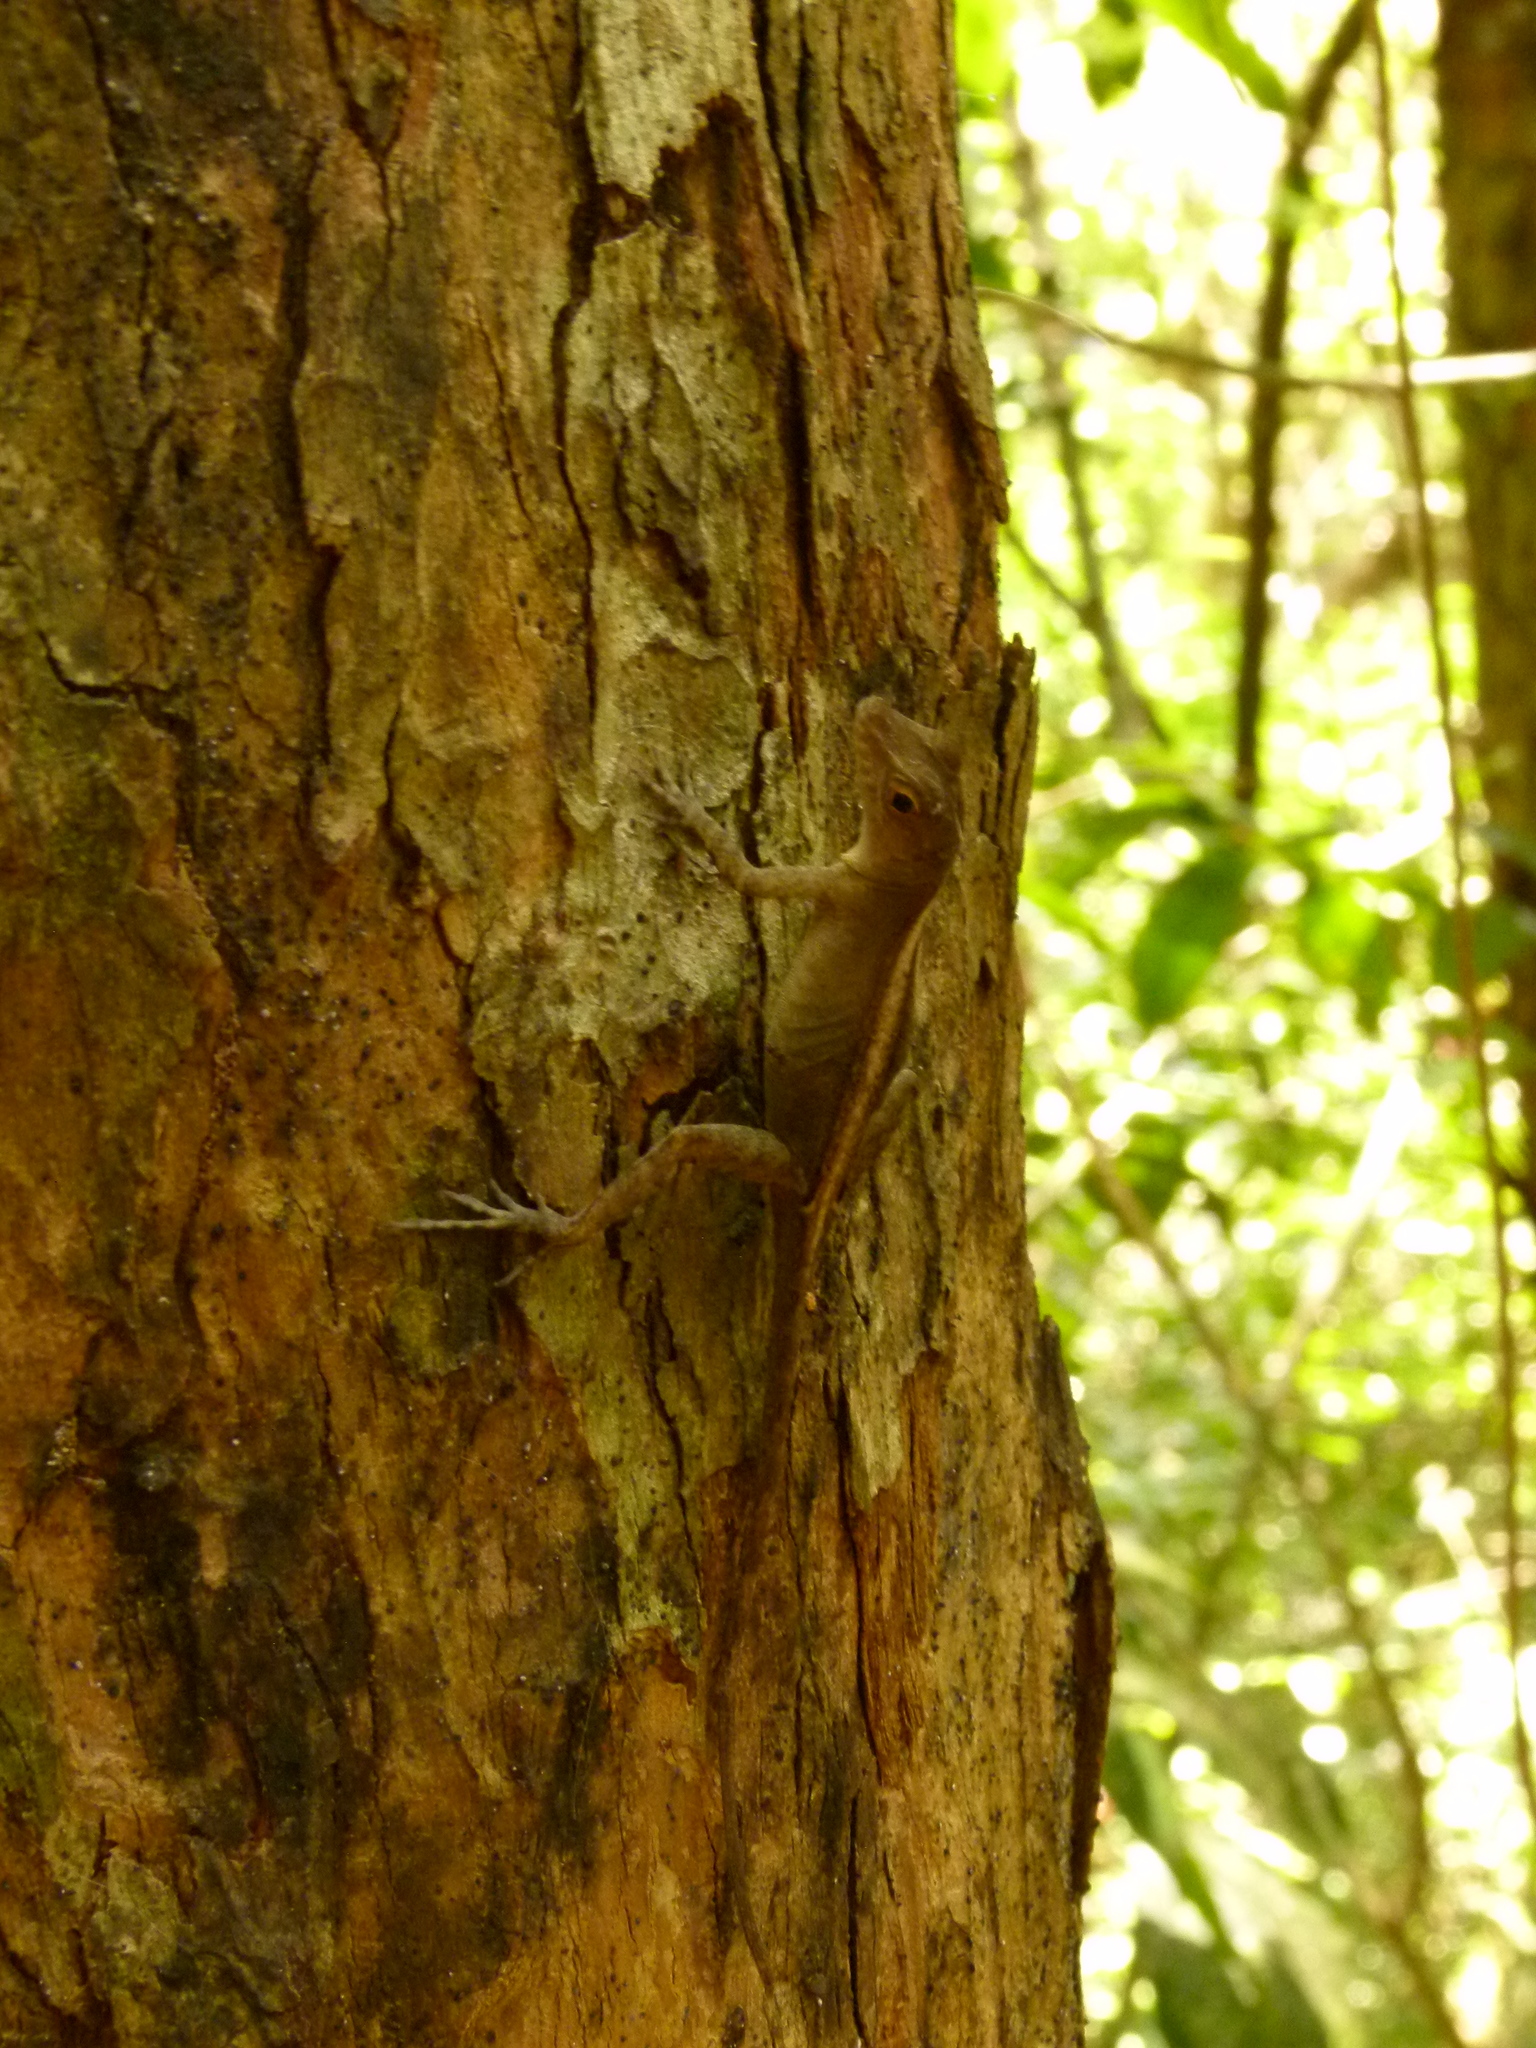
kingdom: Animalia
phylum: Chordata
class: Squamata
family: Dactyloidae
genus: Anolis
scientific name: Anolis cristatellus
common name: Crested anole
